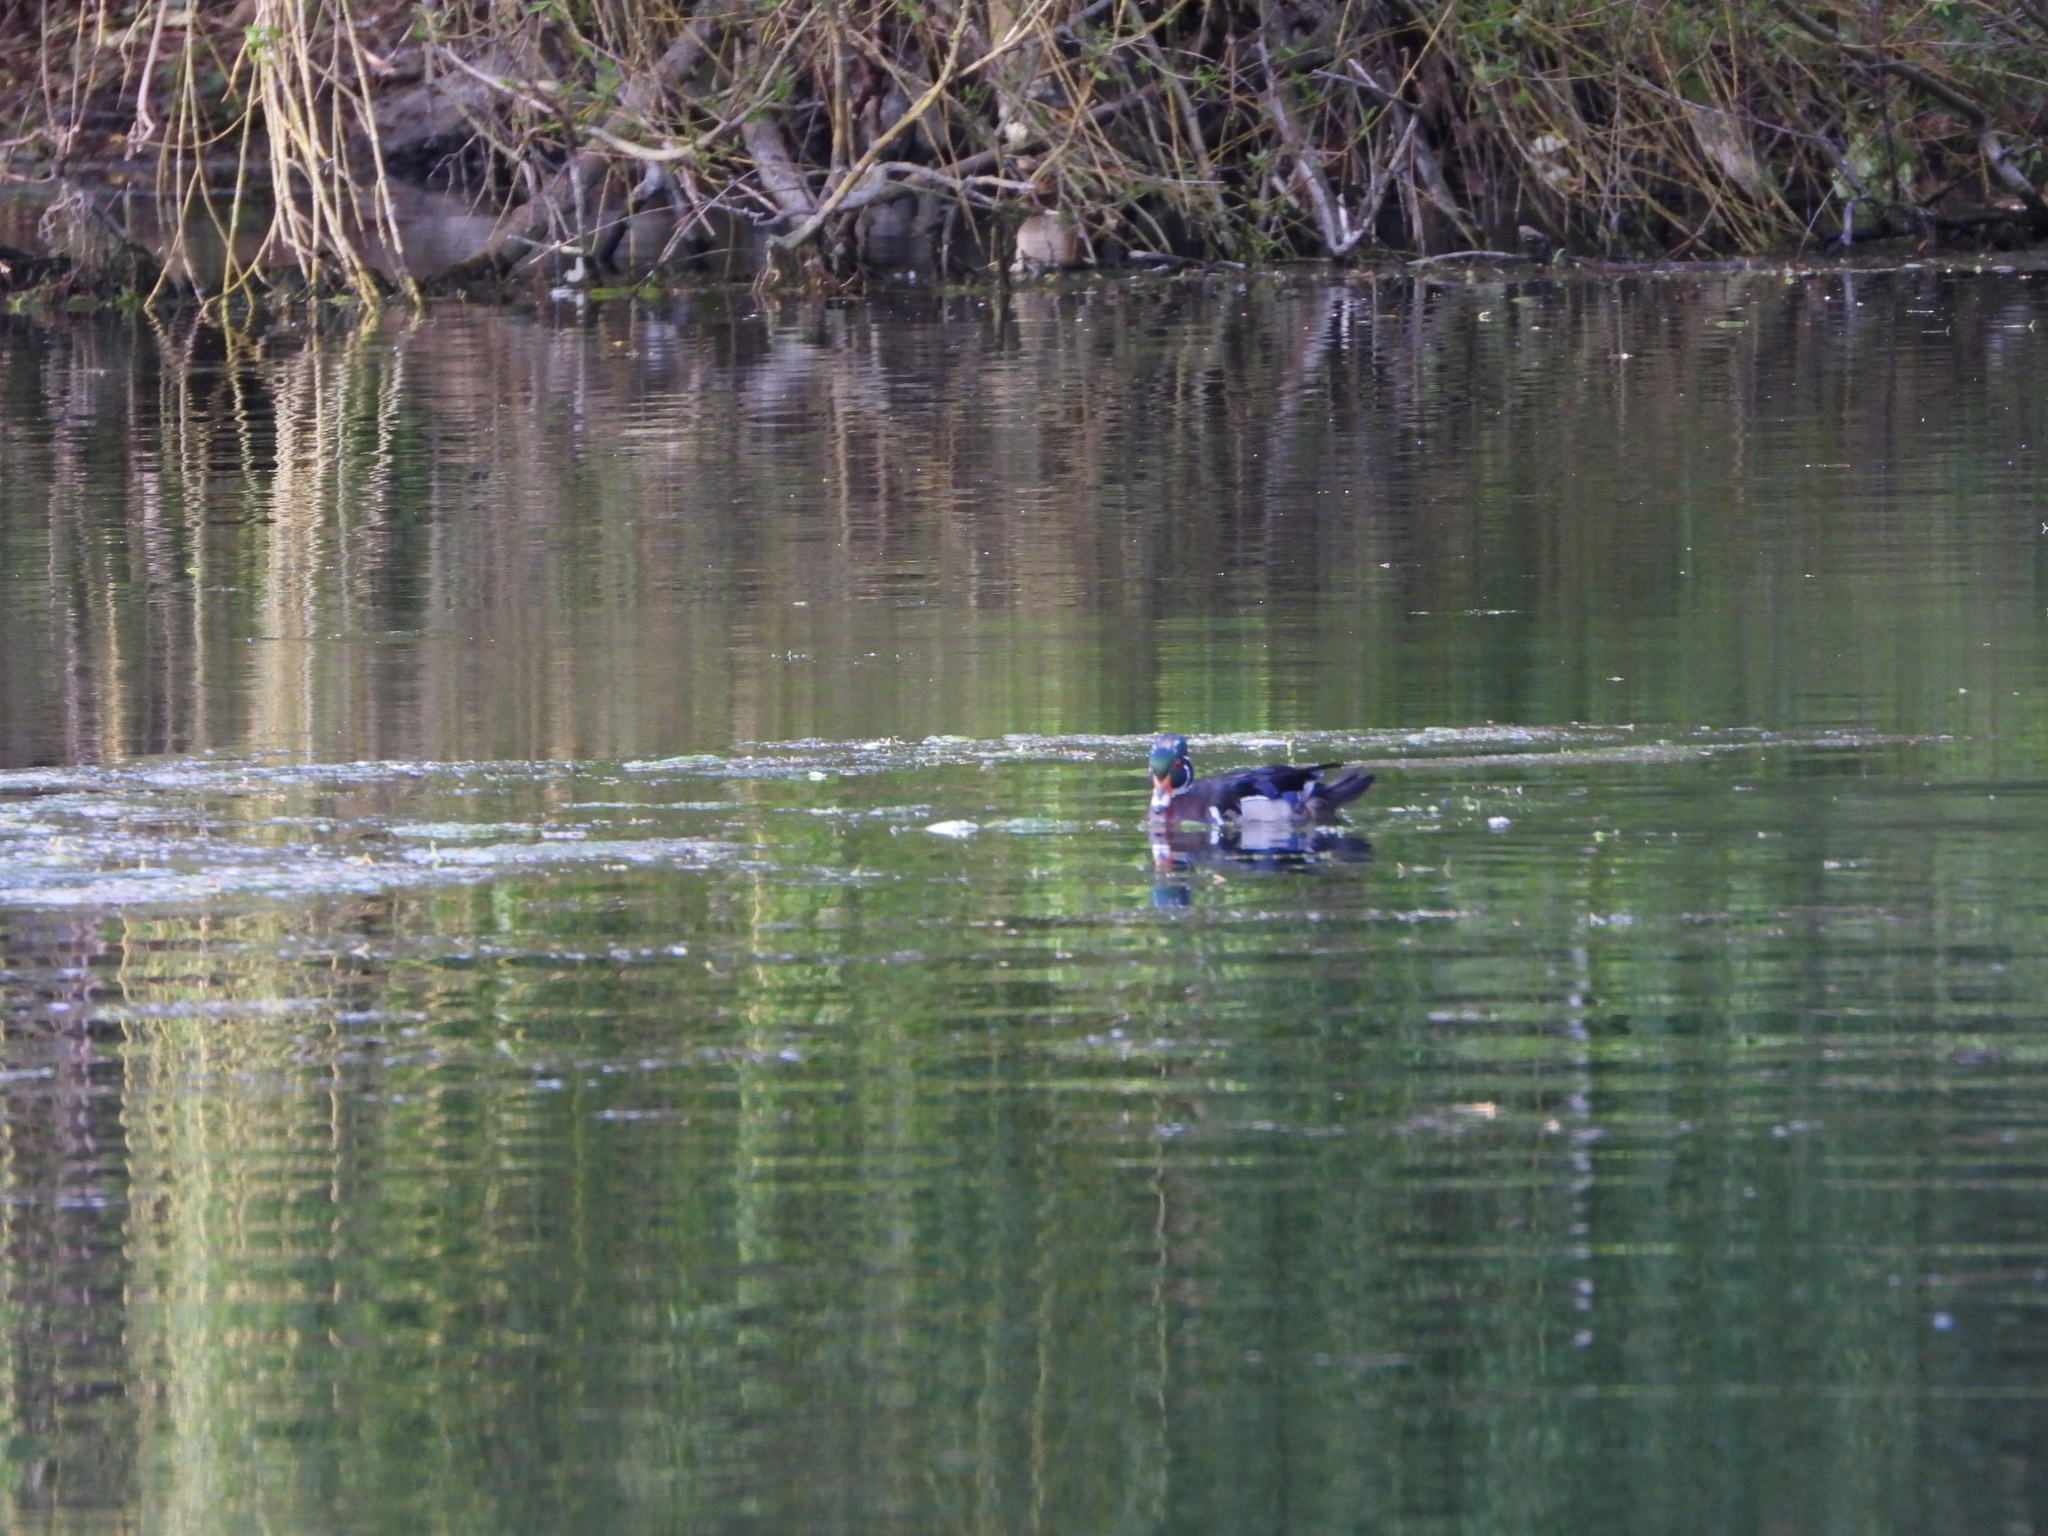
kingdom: Animalia
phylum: Chordata
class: Aves
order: Anseriformes
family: Anatidae
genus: Aix
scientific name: Aix sponsa
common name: Wood duck
